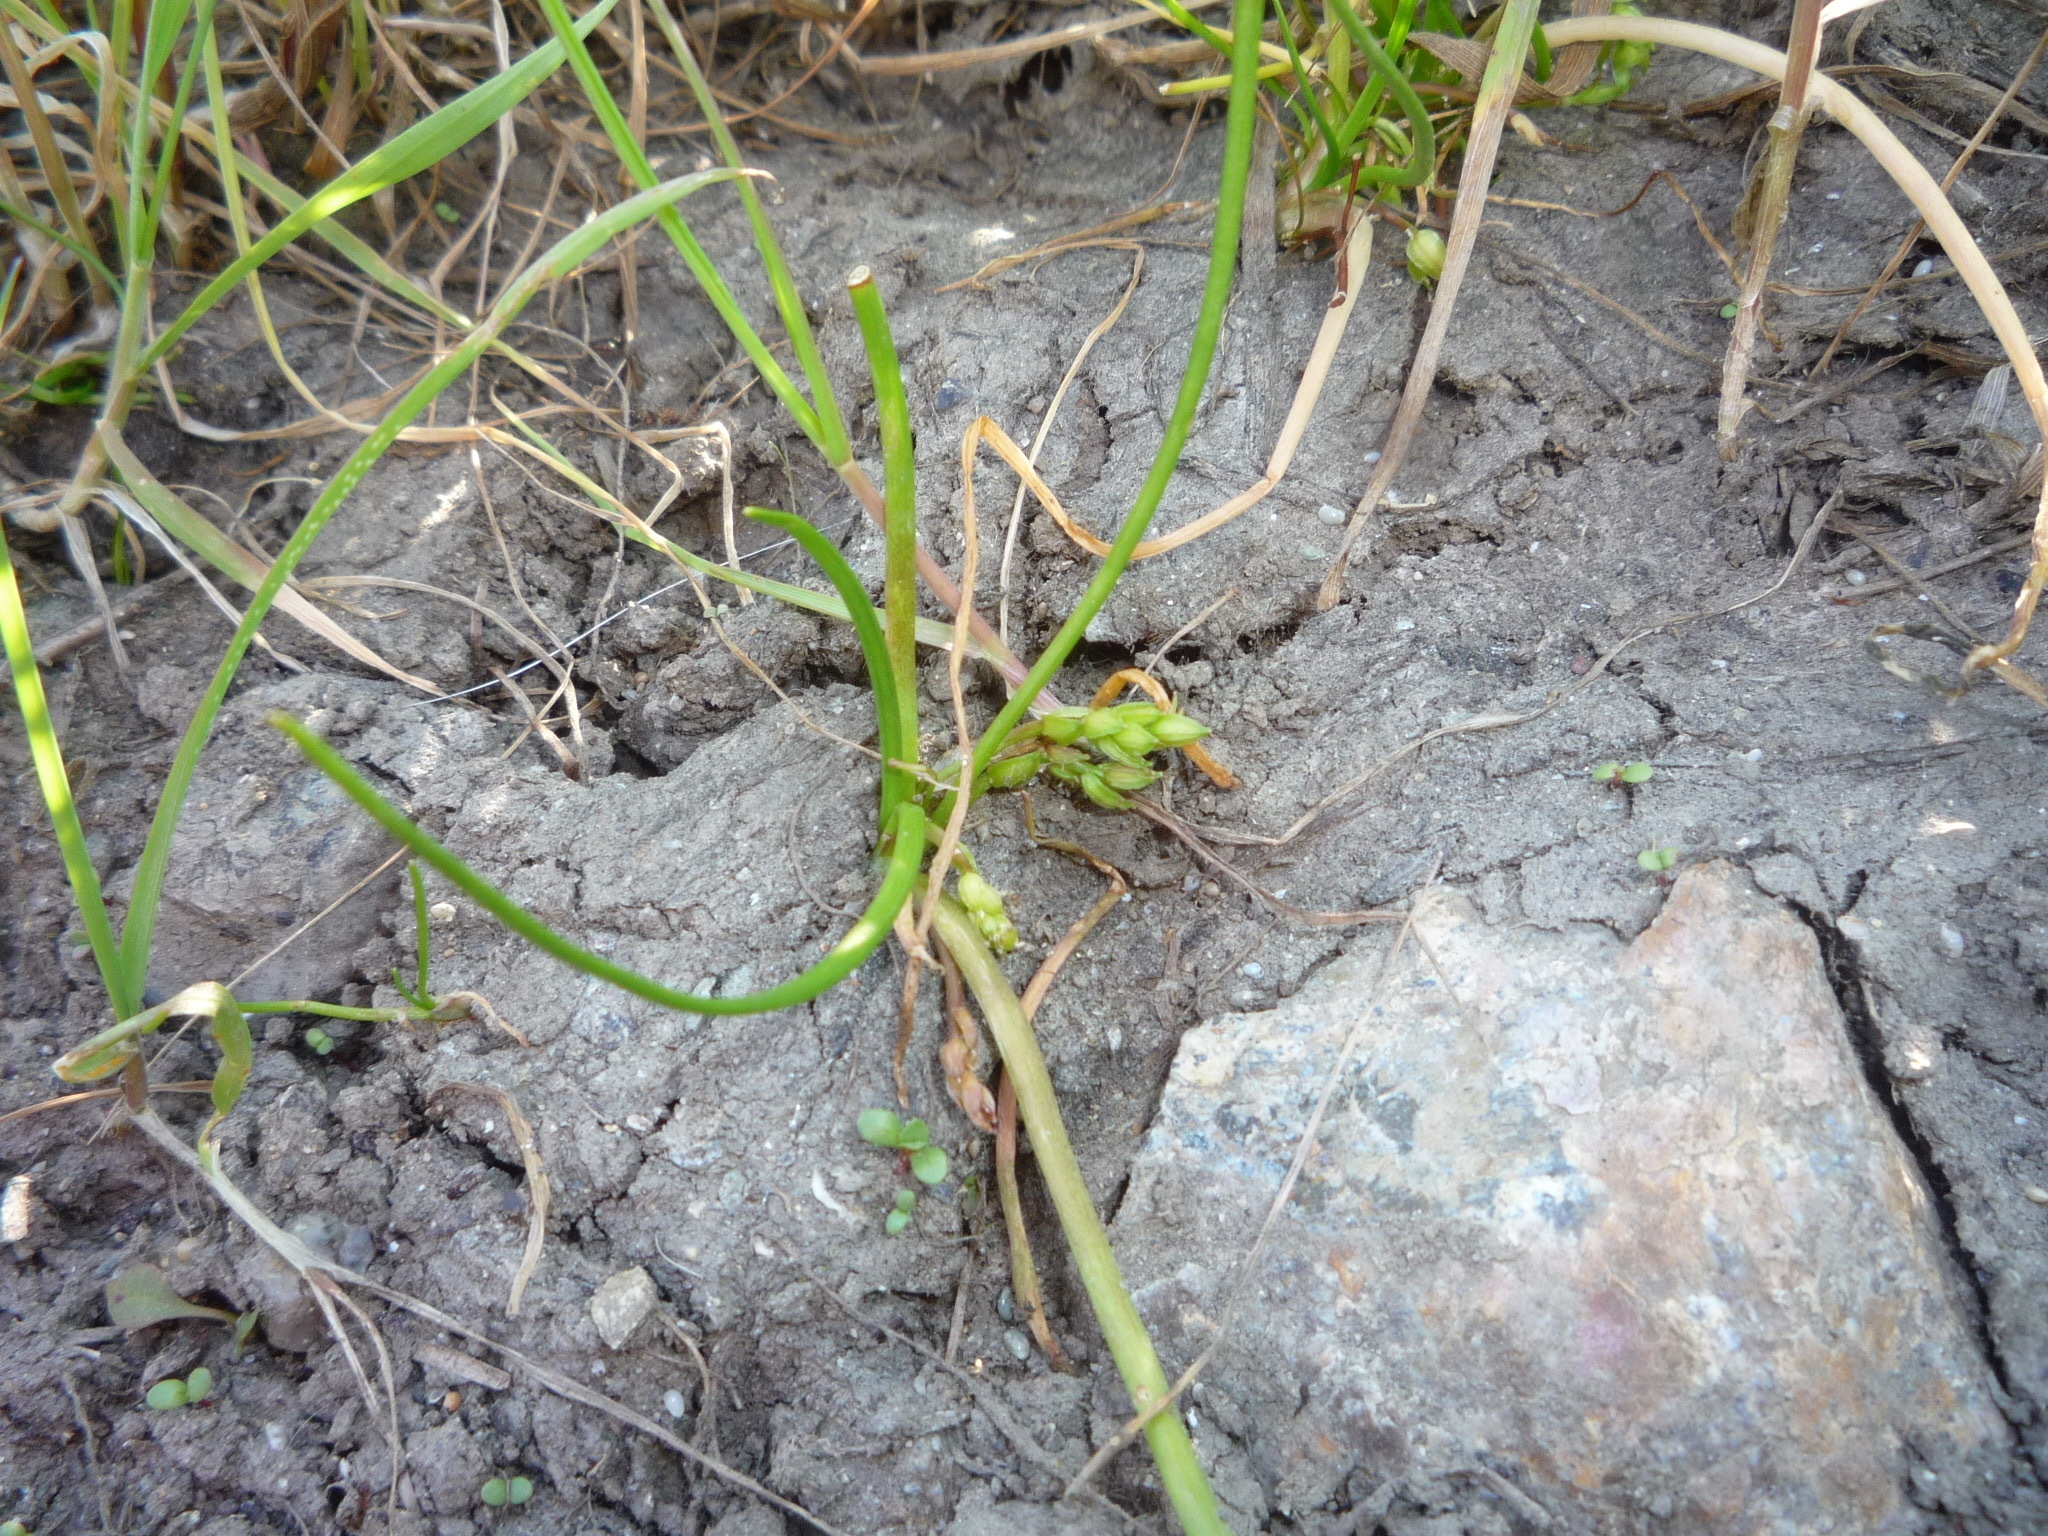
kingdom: Plantae
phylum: Tracheophyta
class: Liliopsida
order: Alismatales
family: Juncaginaceae
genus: Triglochin
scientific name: Triglochin scilloides
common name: Awl-leaved lilaea
